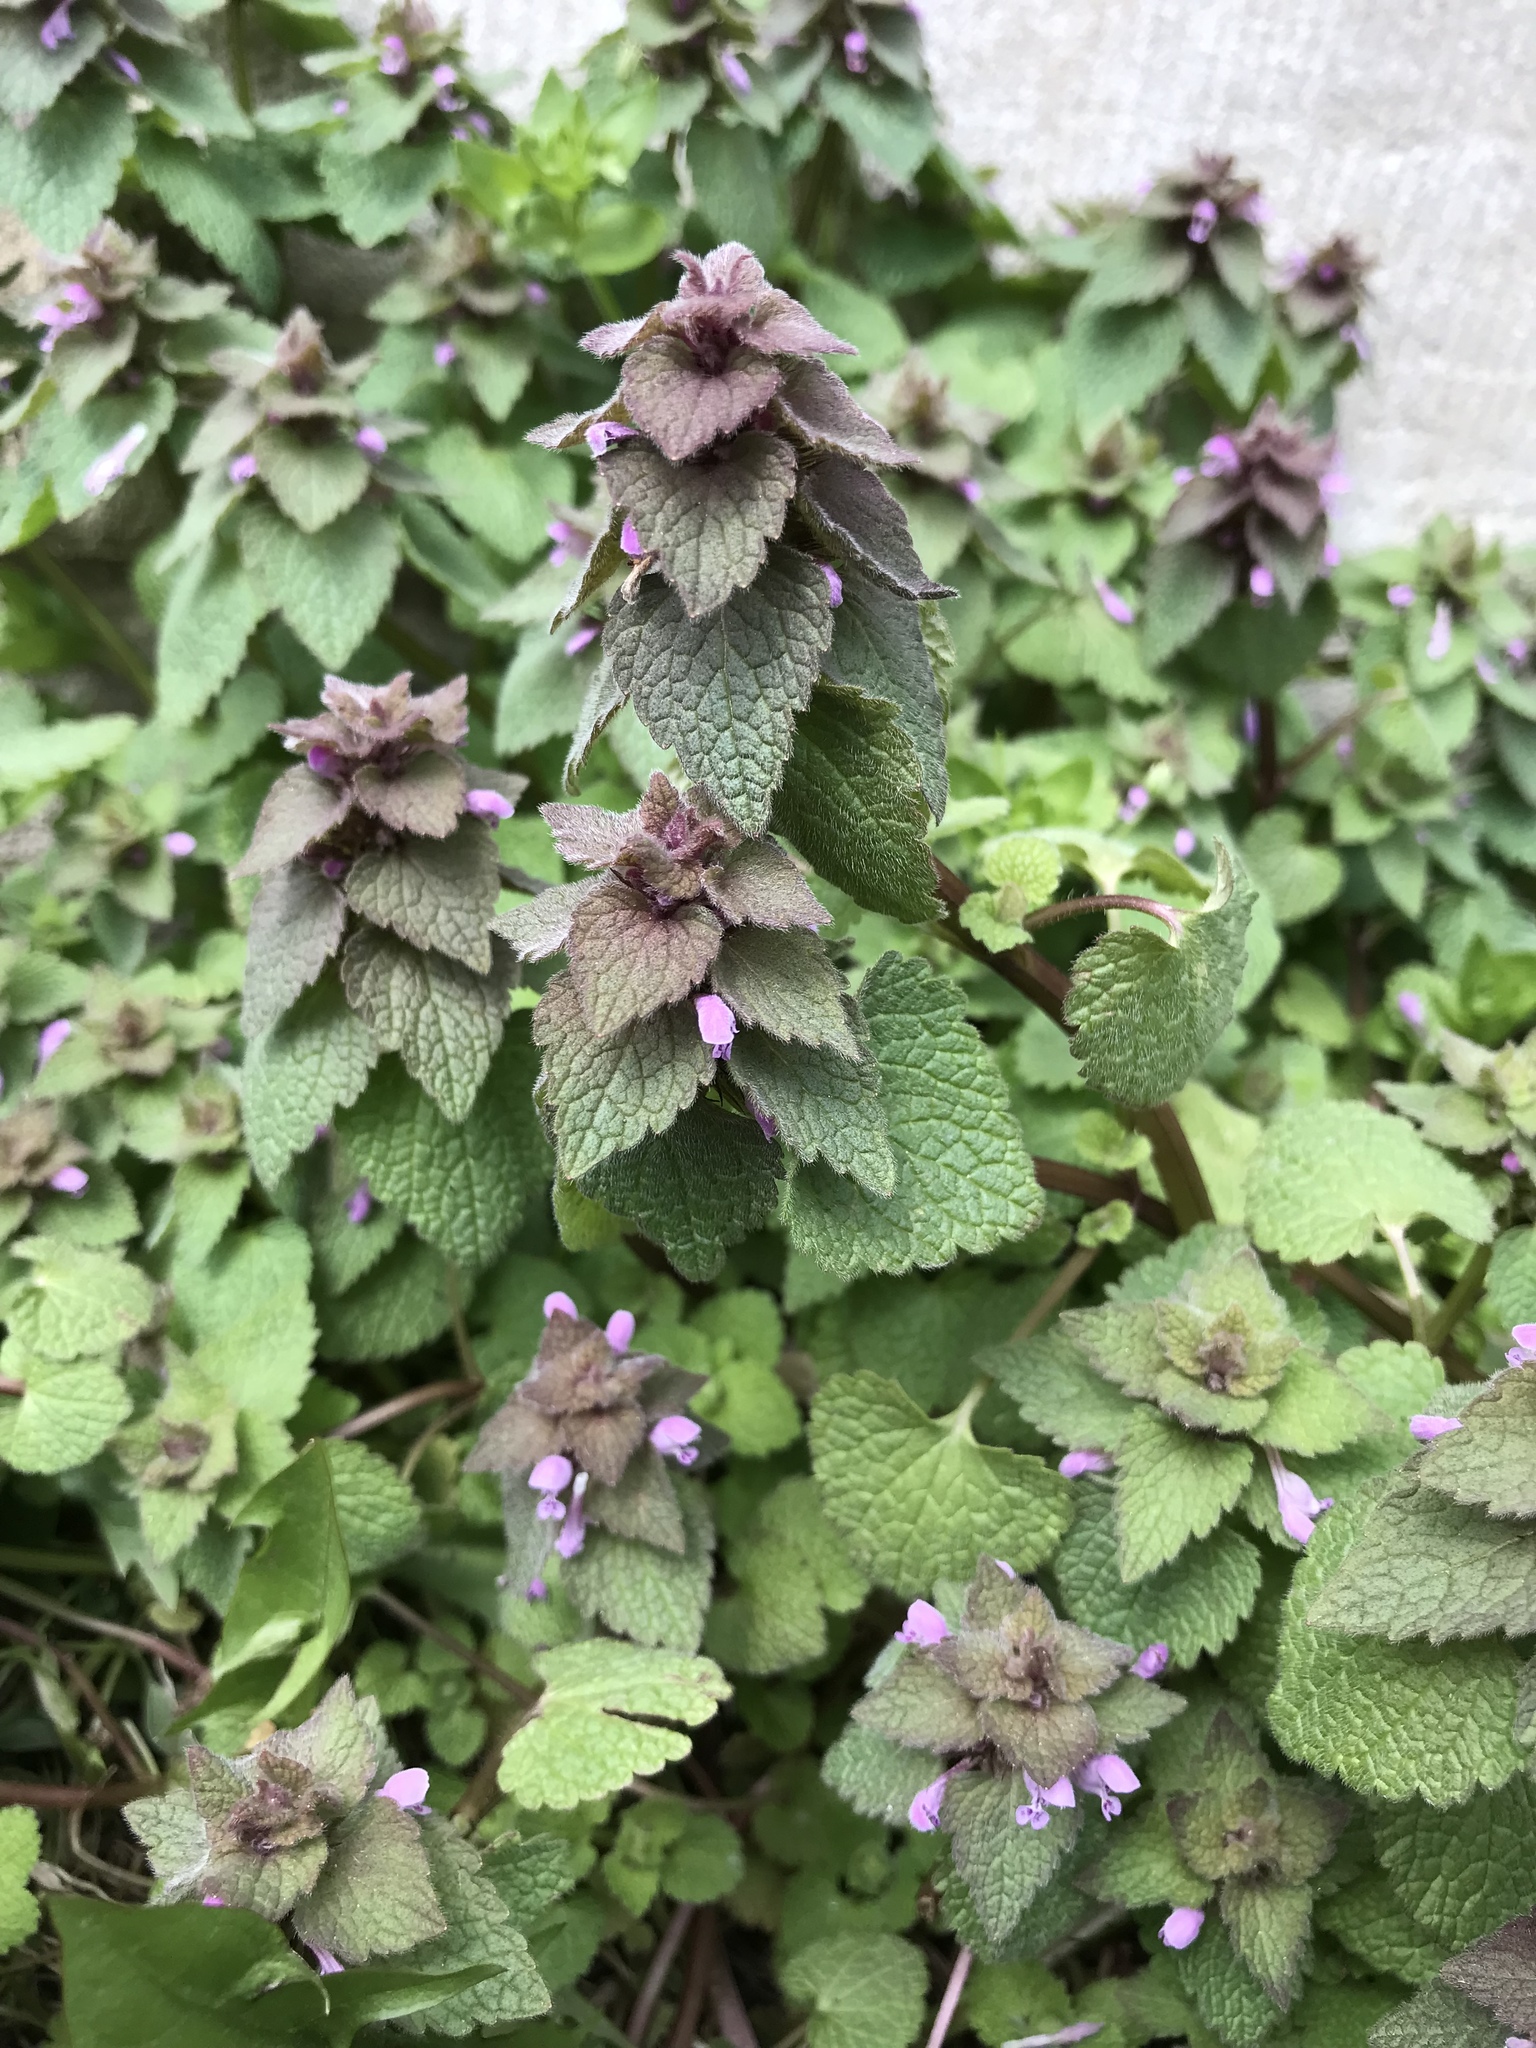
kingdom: Plantae
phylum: Tracheophyta
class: Magnoliopsida
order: Lamiales
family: Lamiaceae
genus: Lamium
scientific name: Lamium purpureum
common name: Red dead-nettle
